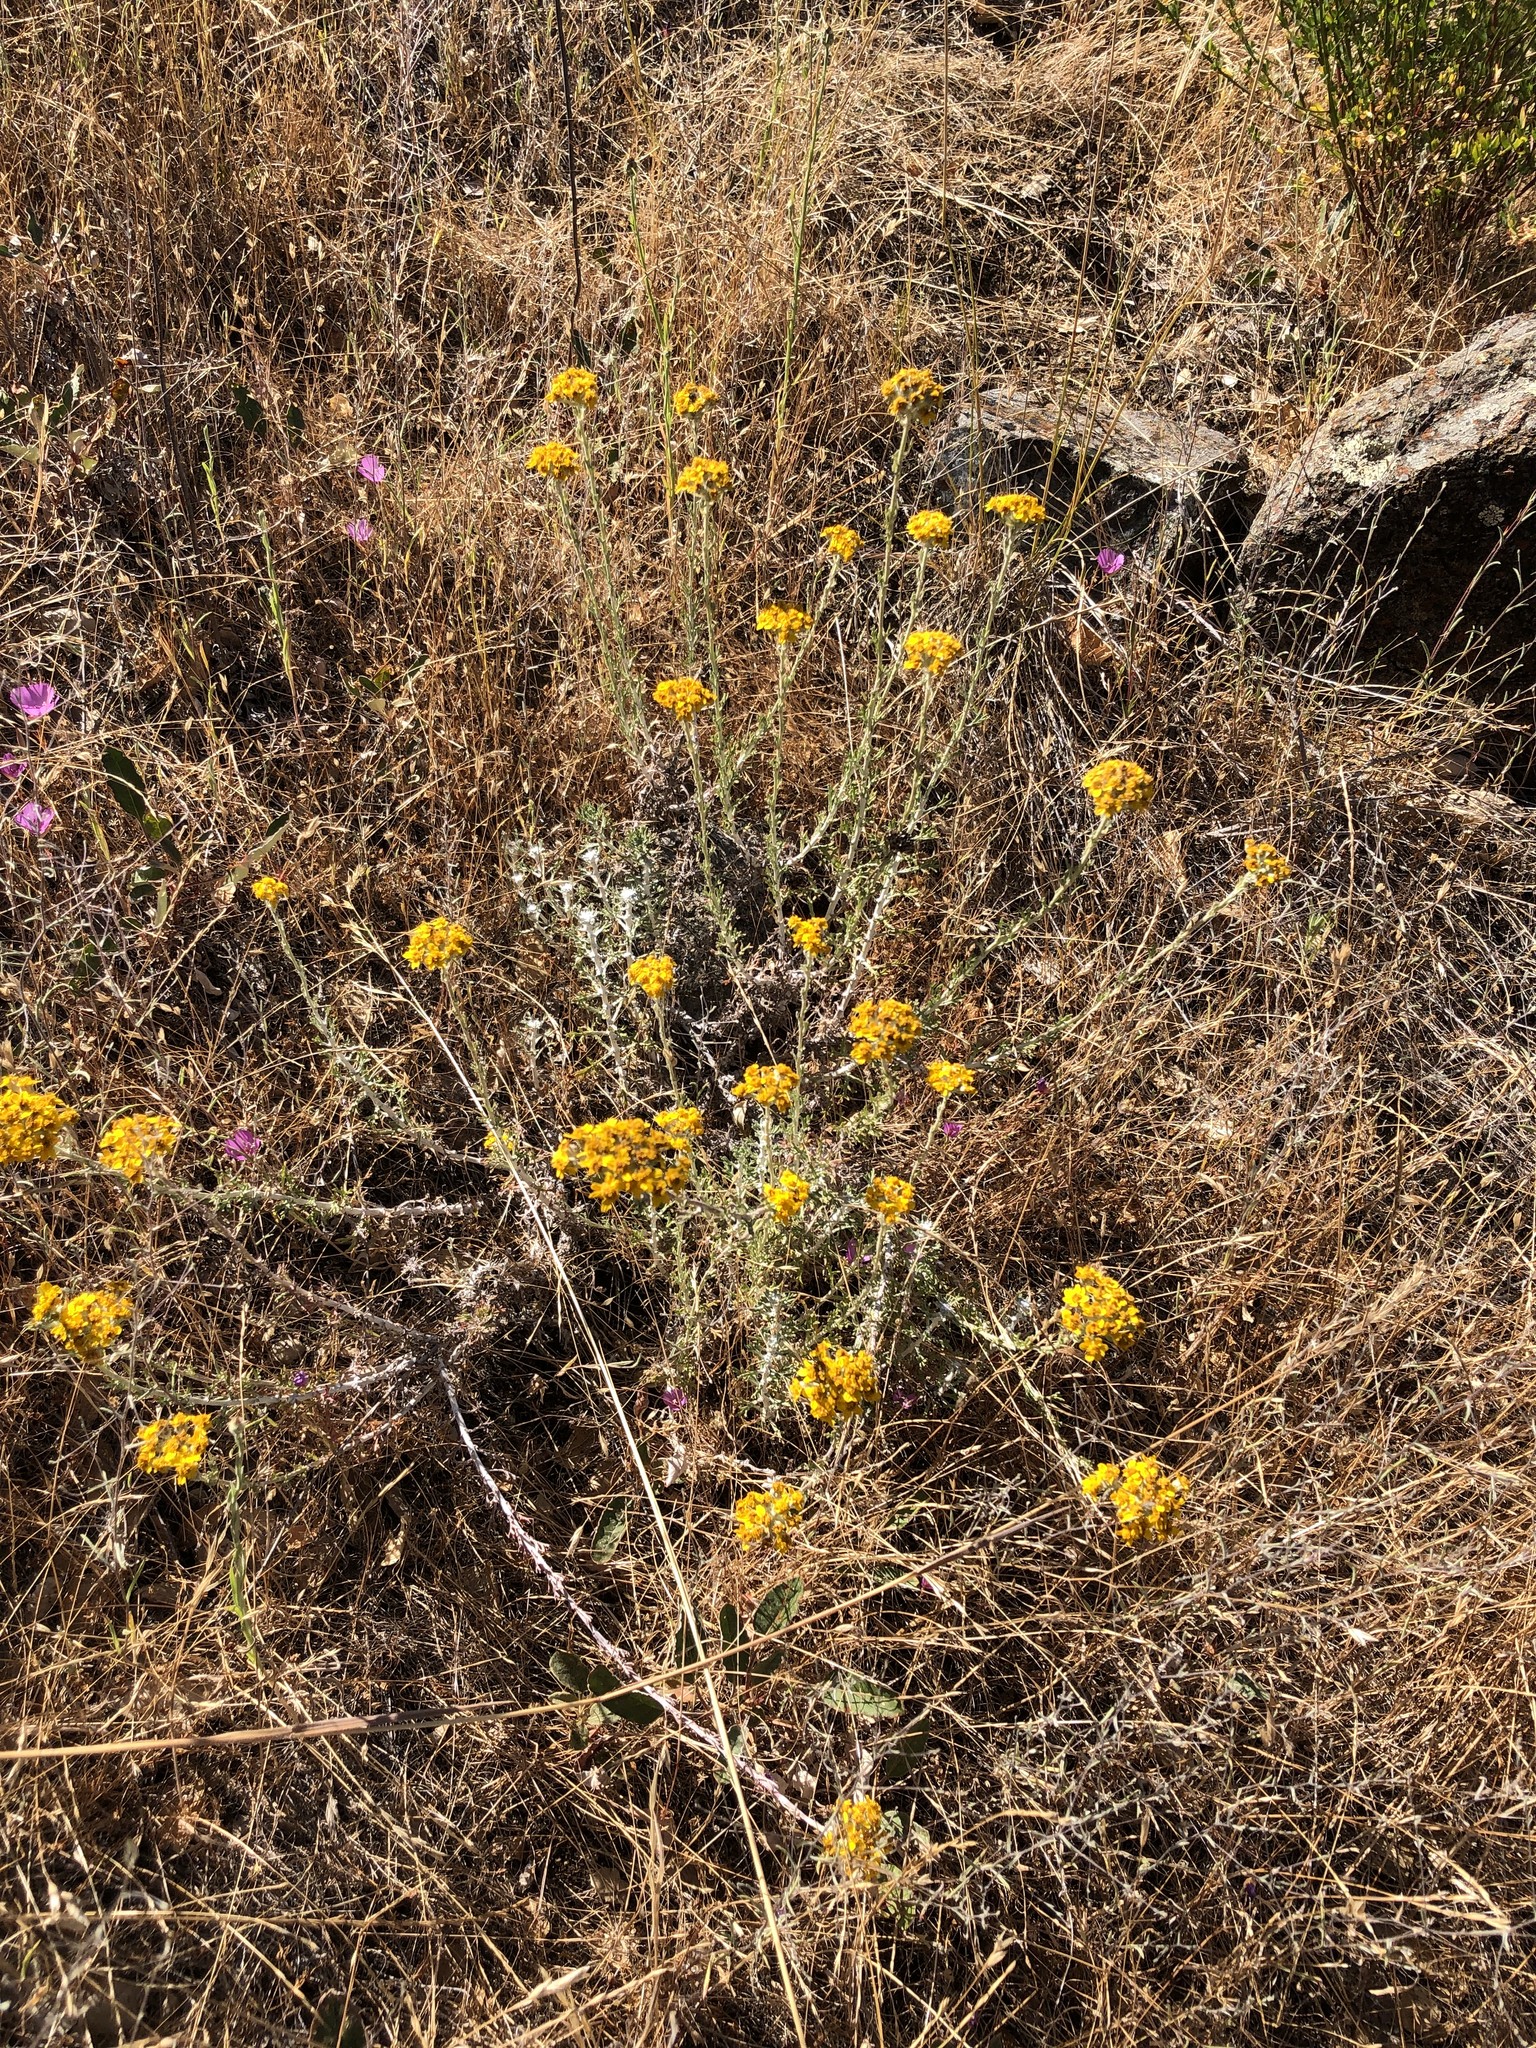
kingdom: Plantae
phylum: Tracheophyta
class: Magnoliopsida
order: Asterales
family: Asteraceae
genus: Eriophyllum
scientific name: Eriophyllum confertiflorum
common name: Golden-yarrow
